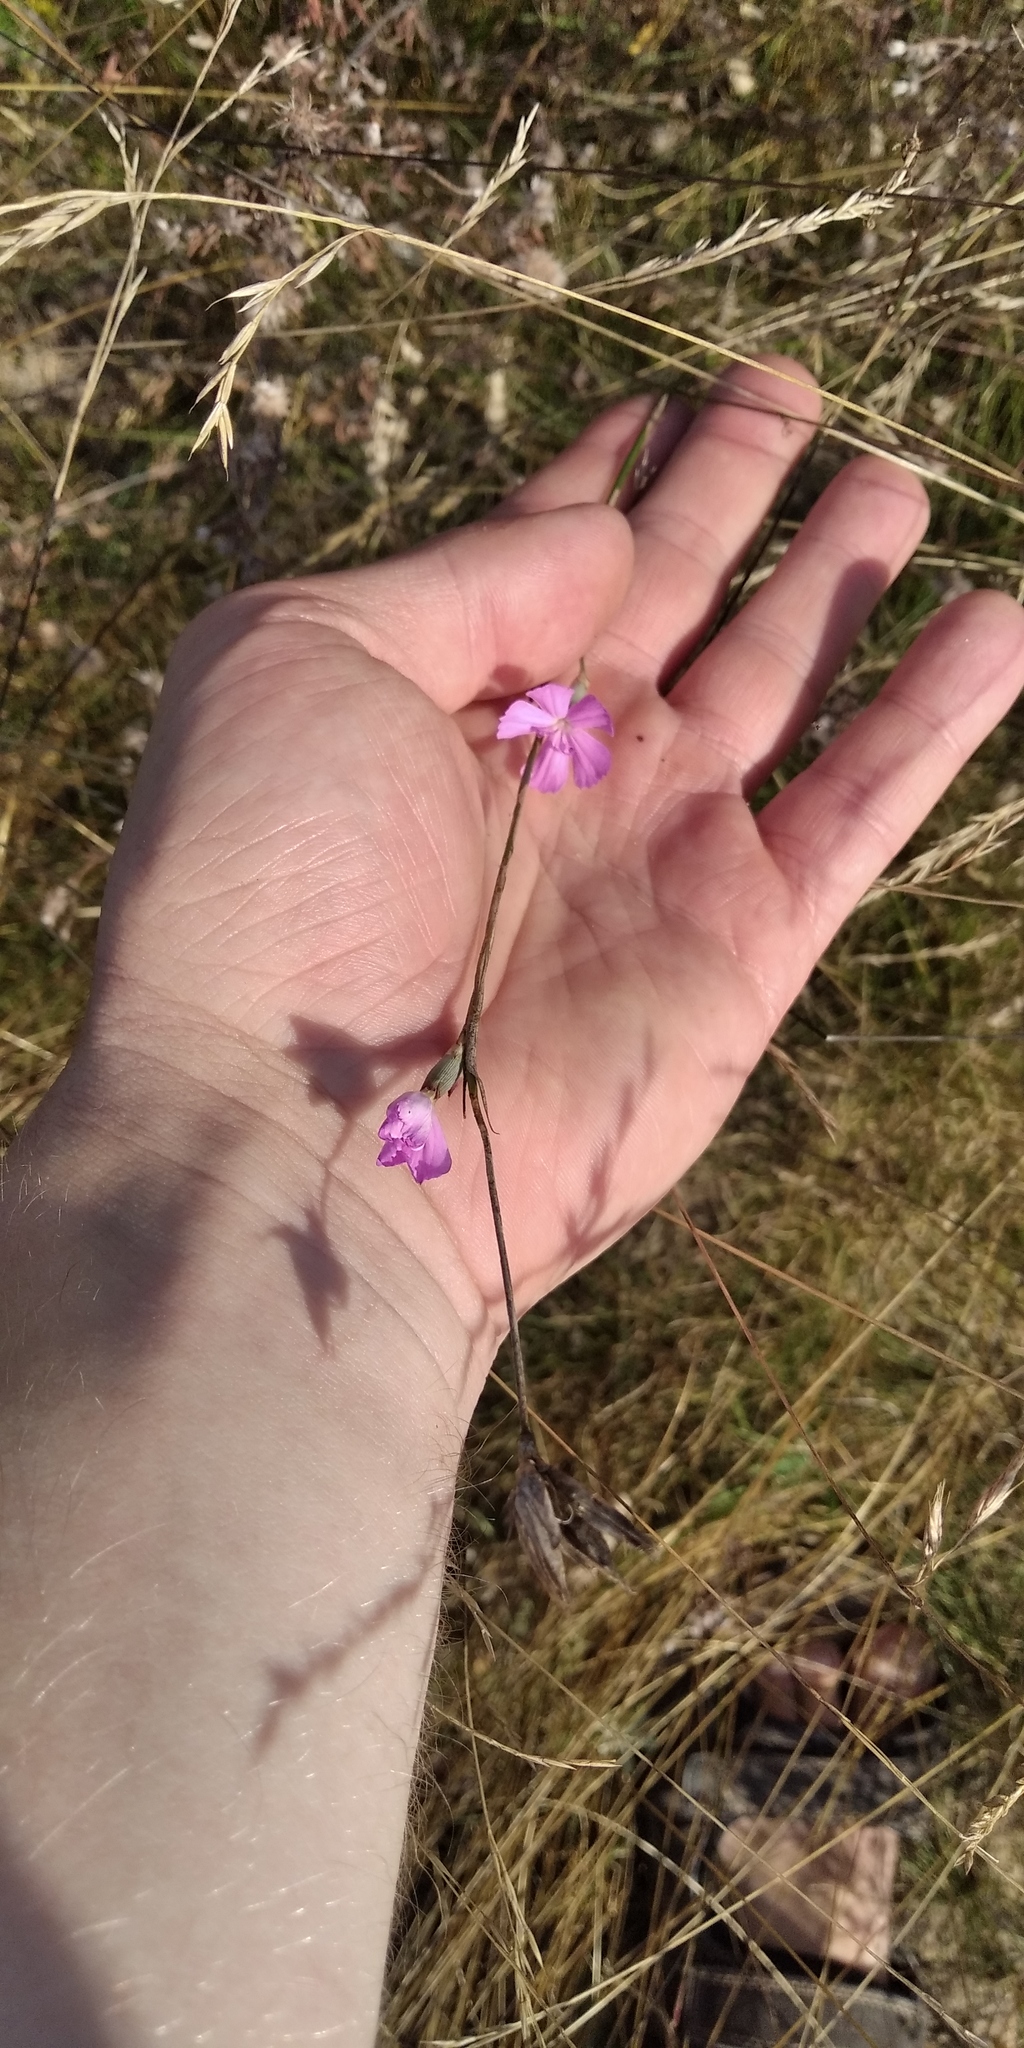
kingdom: Plantae
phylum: Tracheophyta
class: Magnoliopsida
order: Caryophyllales
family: Caryophyllaceae
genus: Dianthus
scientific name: Dianthus borbasii
